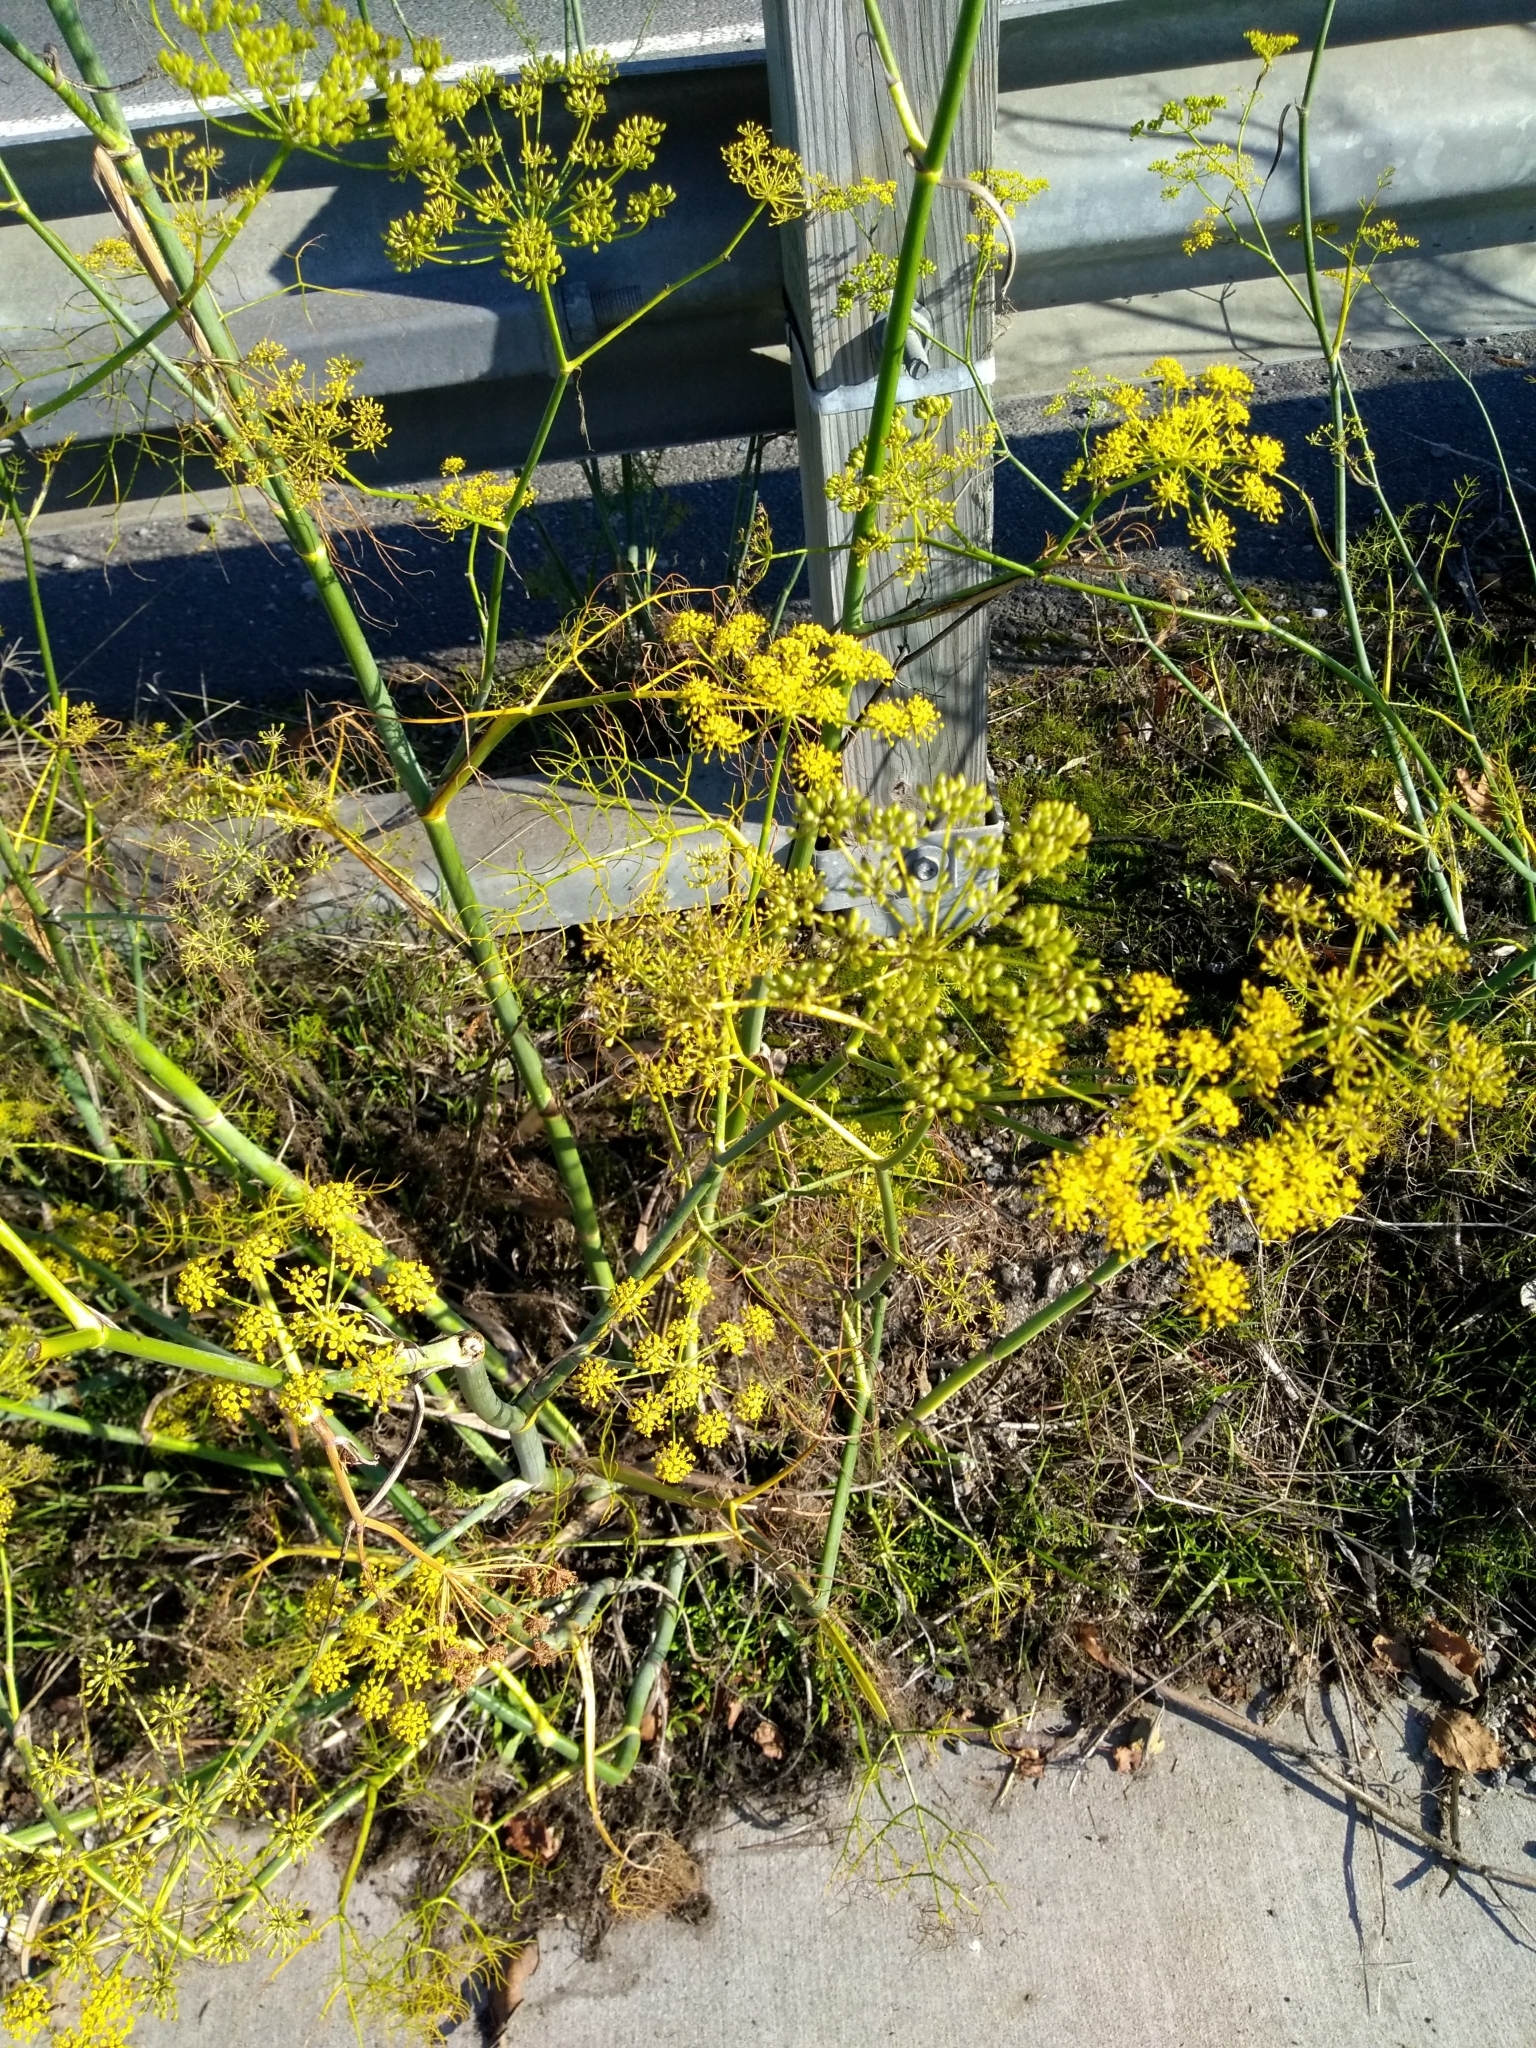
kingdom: Plantae
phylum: Tracheophyta
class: Magnoliopsida
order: Apiales
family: Apiaceae
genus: Foeniculum
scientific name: Foeniculum vulgare
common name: Fennel
